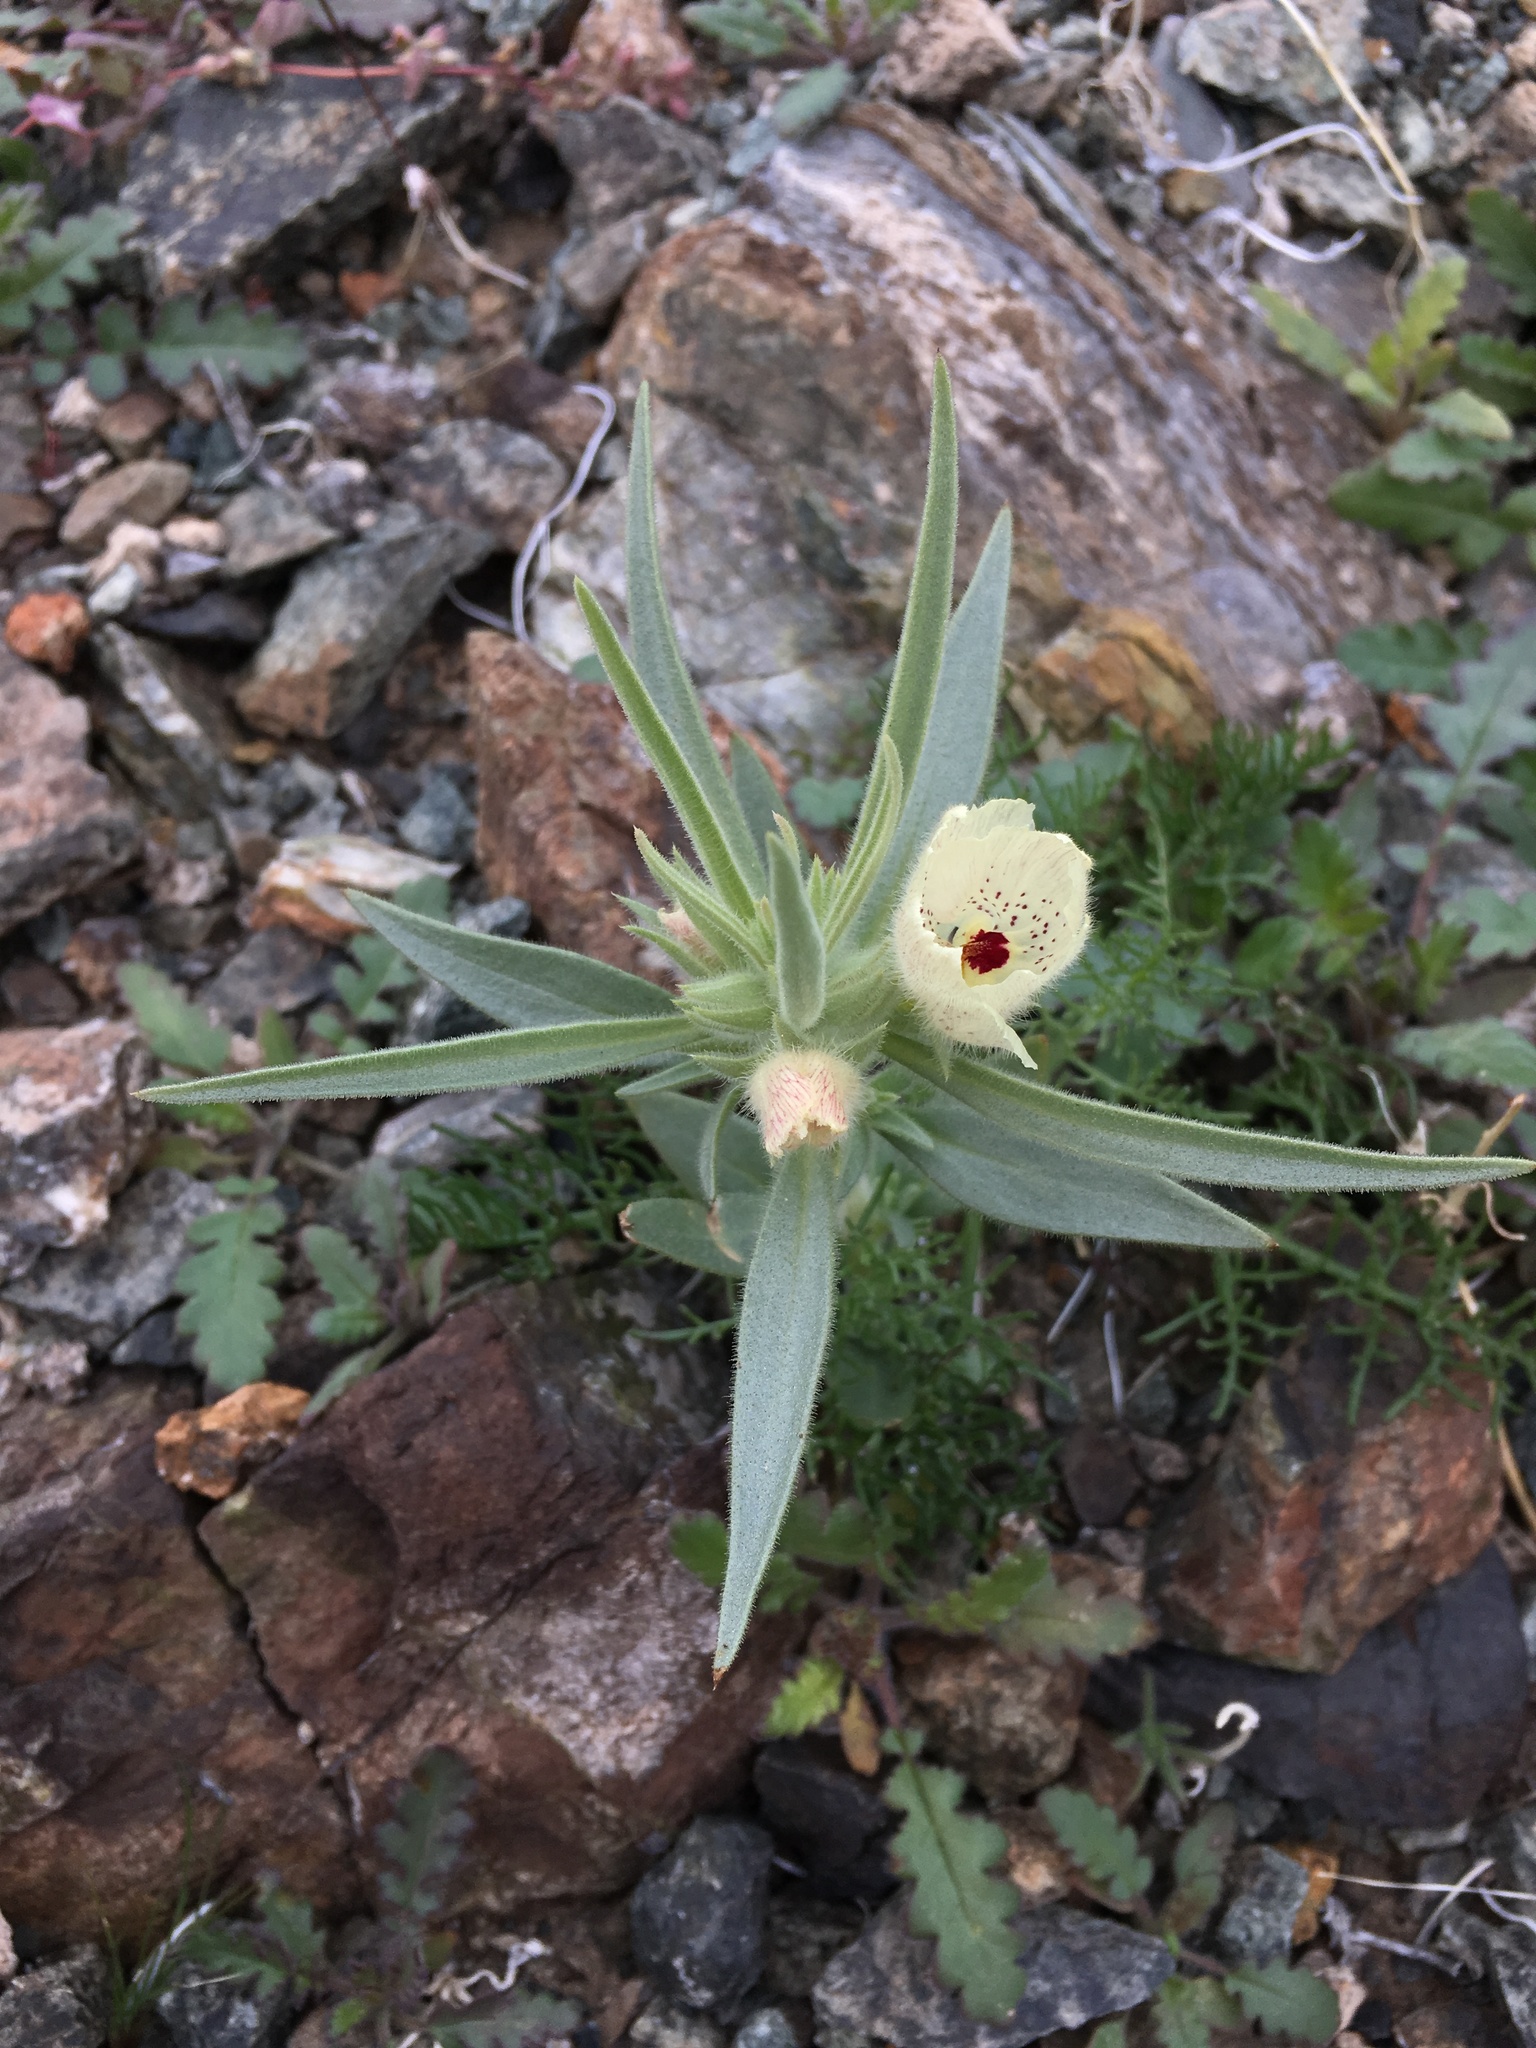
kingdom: Plantae
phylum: Tracheophyta
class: Magnoliopsida
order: Lamiales
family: Plantaginaceae
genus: Mohavea
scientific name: Mohavea confertiflora
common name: Ghost flower
